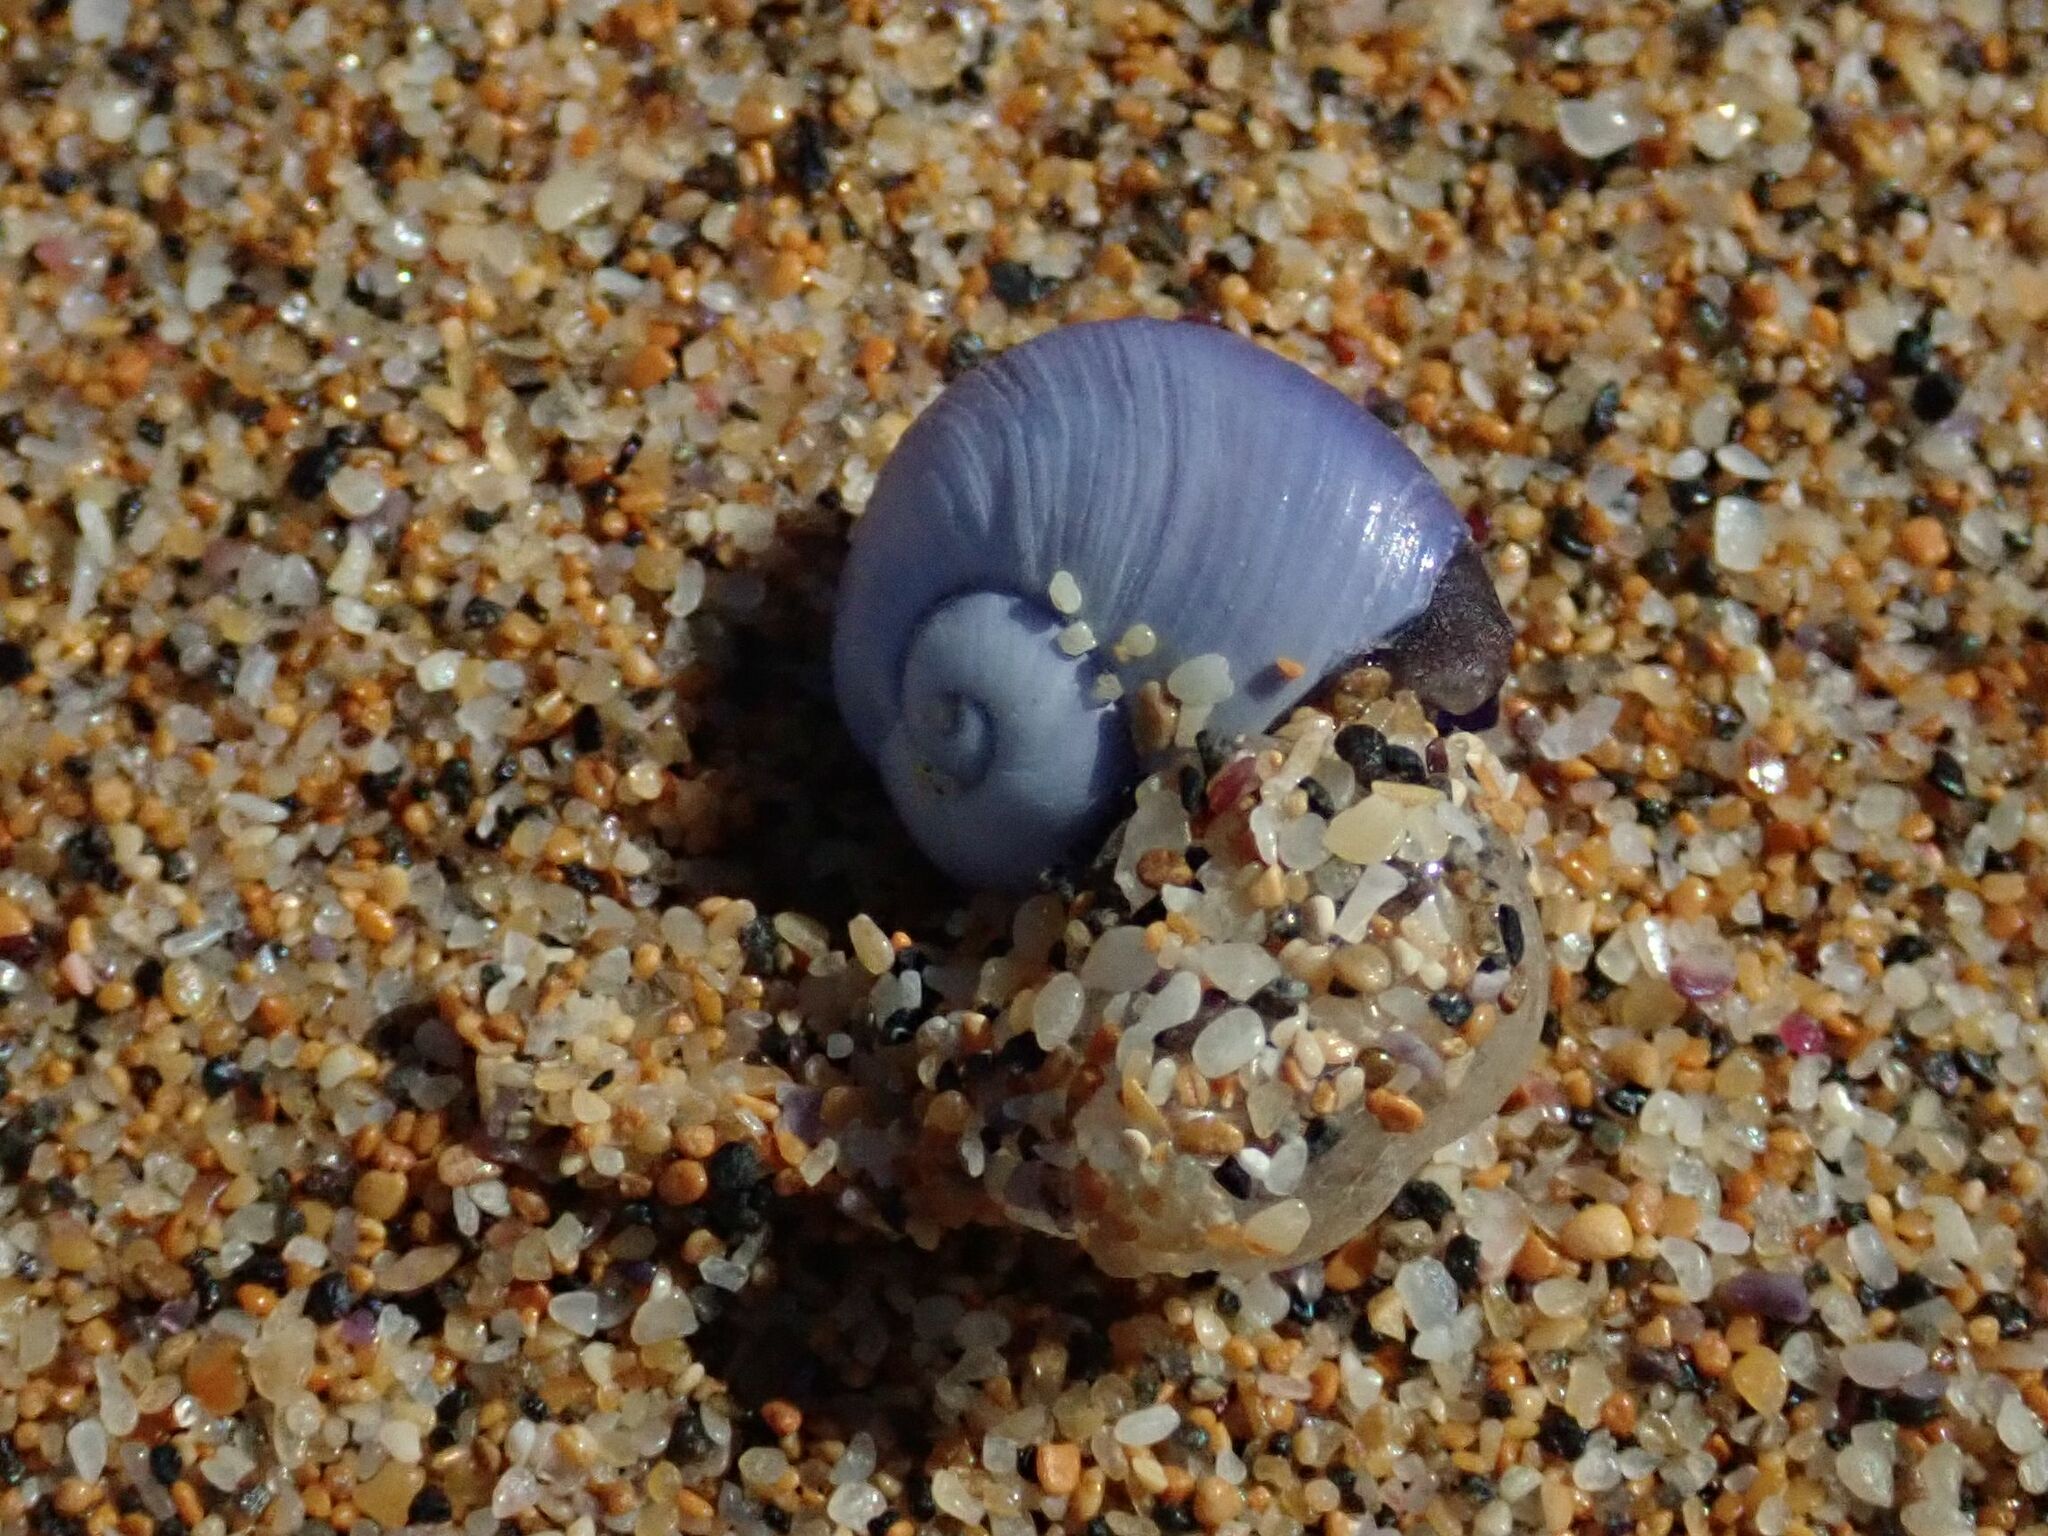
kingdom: Animalia
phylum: Mollusca
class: Gastropoda
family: Epitoniidae
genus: Janthina
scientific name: Janthina janthina
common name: Common janthina
